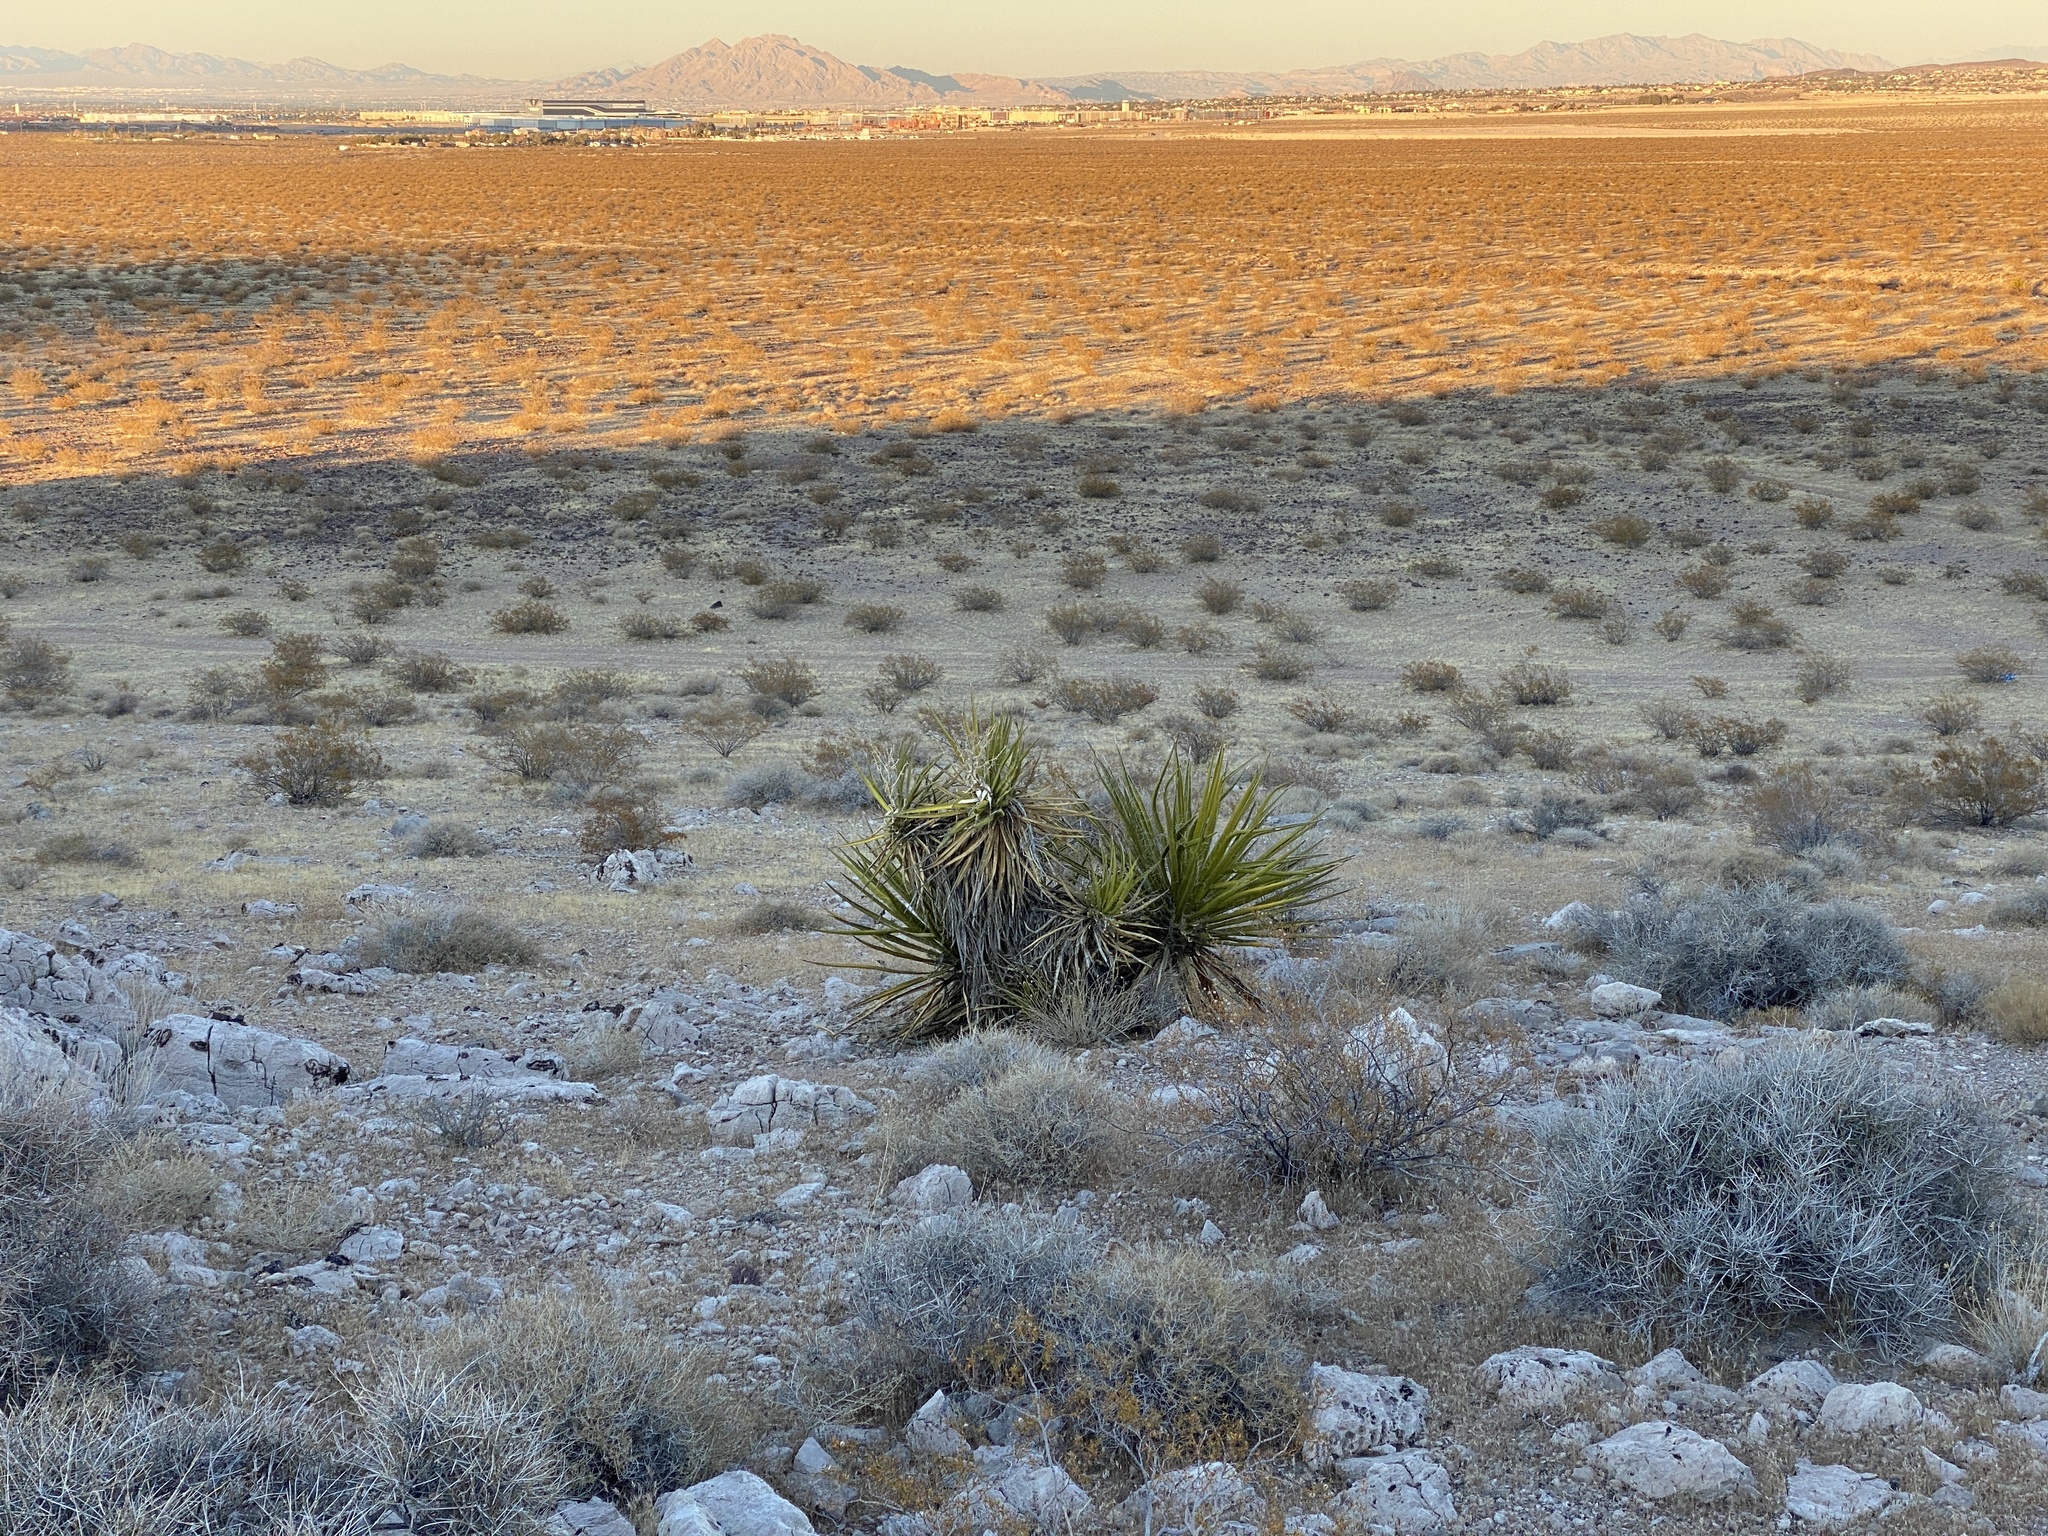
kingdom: Plantae
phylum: Tracheophyta
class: Liliopsida
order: Asparagales
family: Asparagaceae
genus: Yucca
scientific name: Yucca schidigera
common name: Mojave yucca
